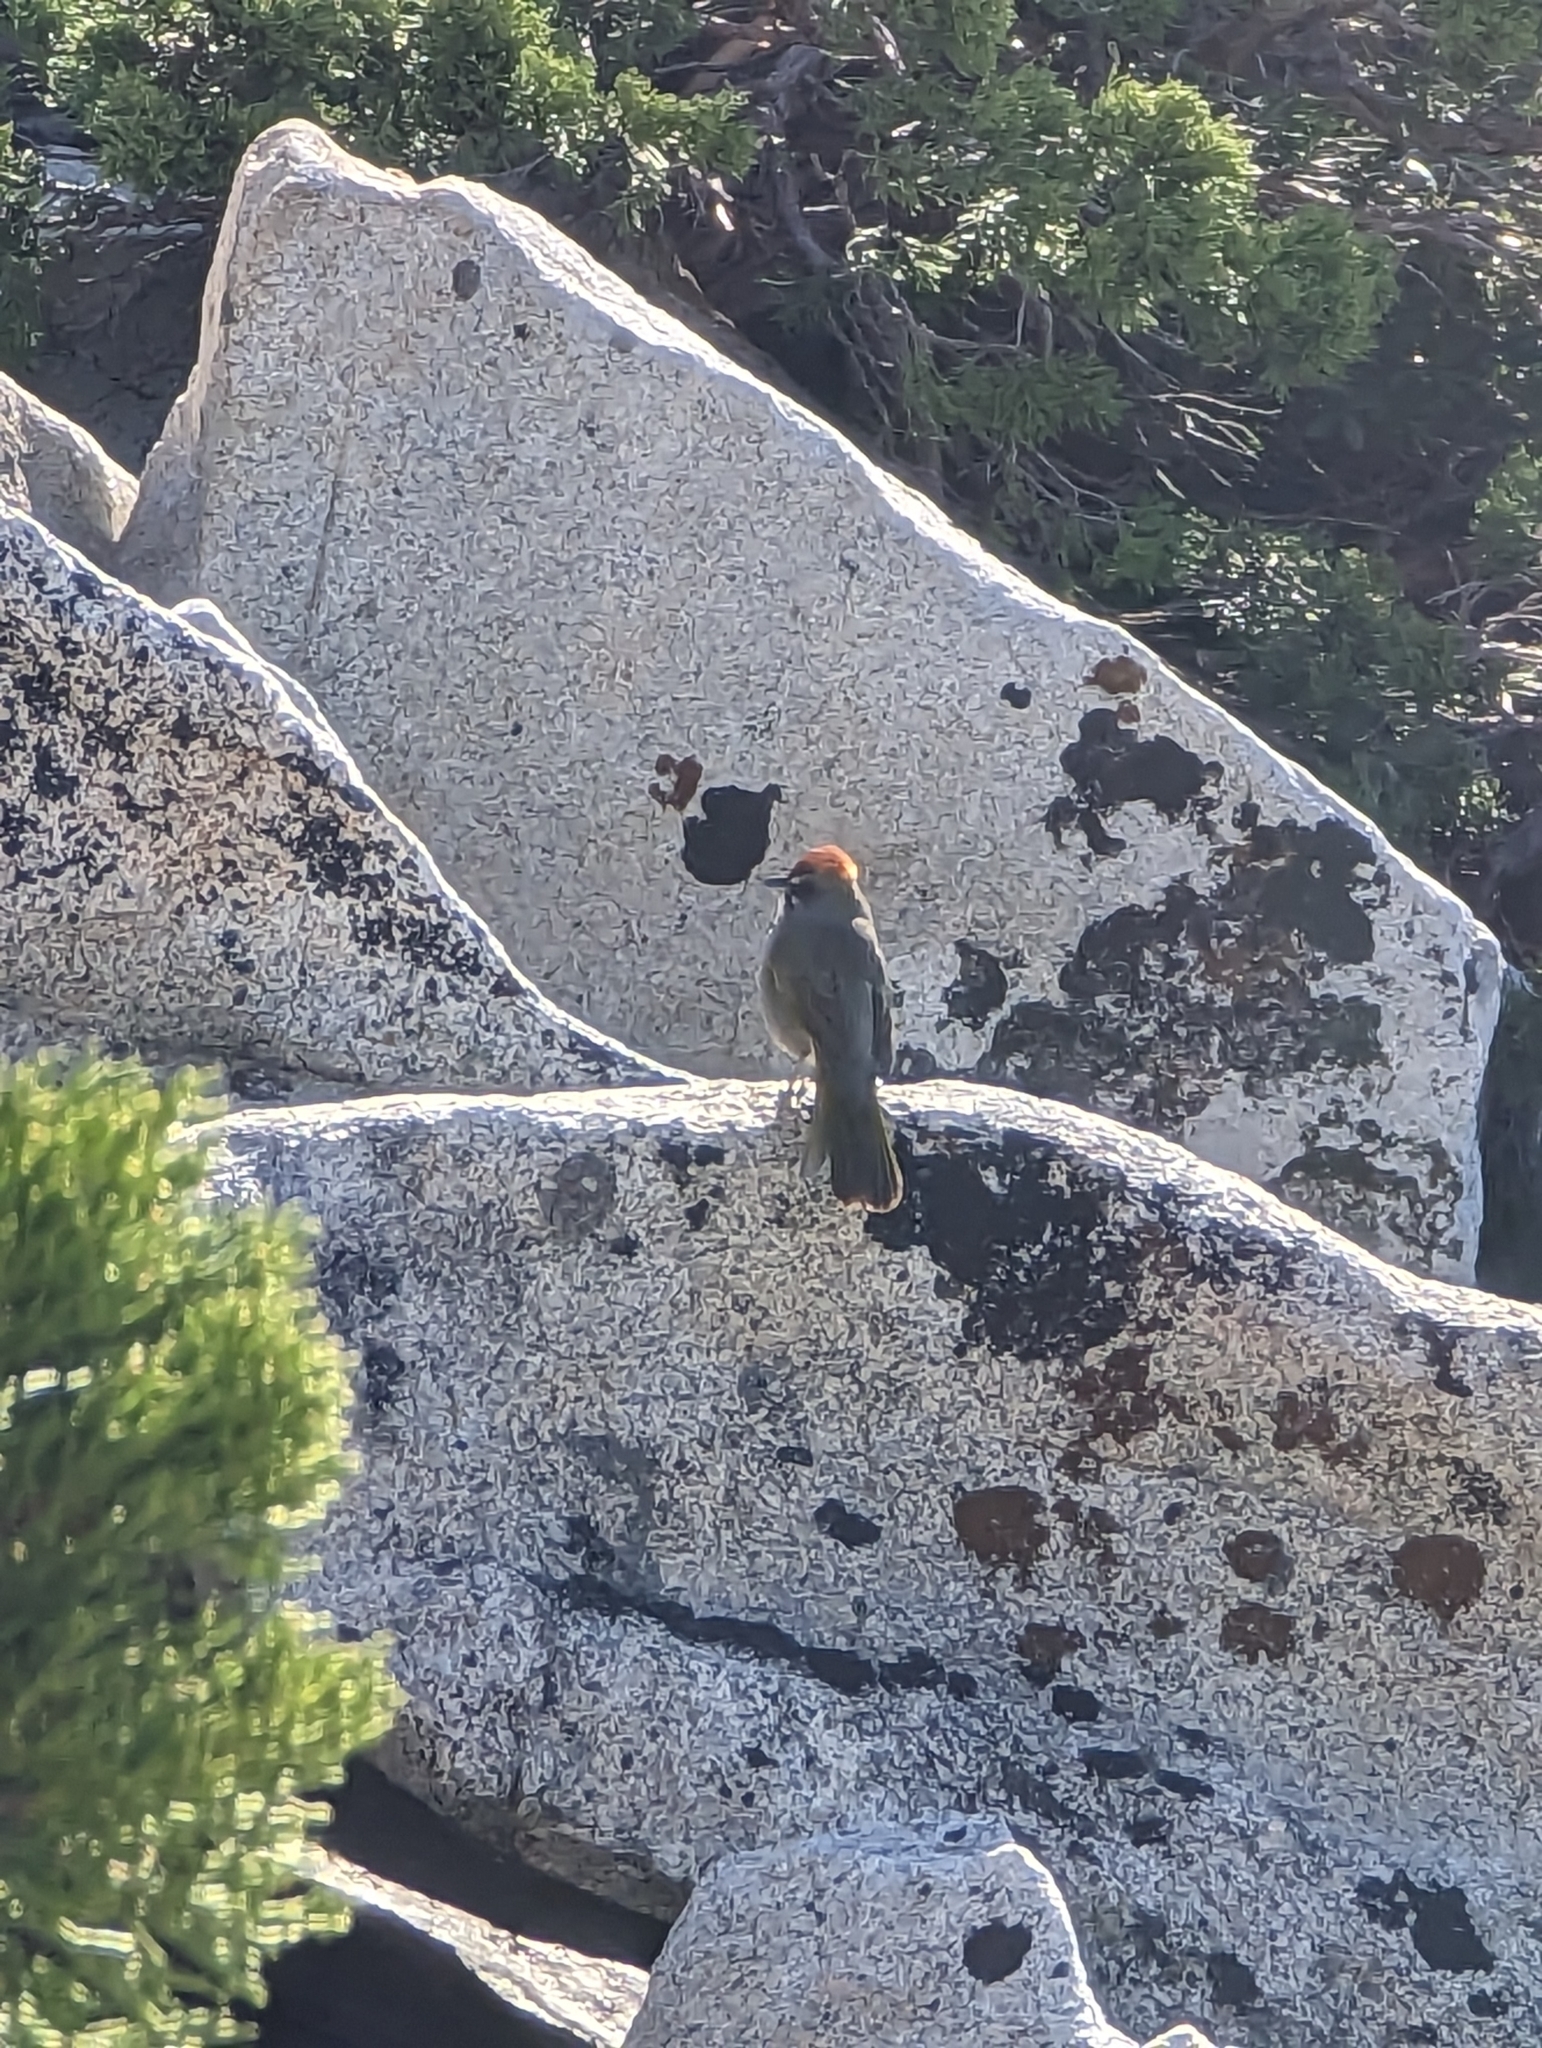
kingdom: Animalia
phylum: Chordata
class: Aves
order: Passeriformes
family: Passerellidae
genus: Pipilo
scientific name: Pipilo chlorurus
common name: Green-tailed towhee
